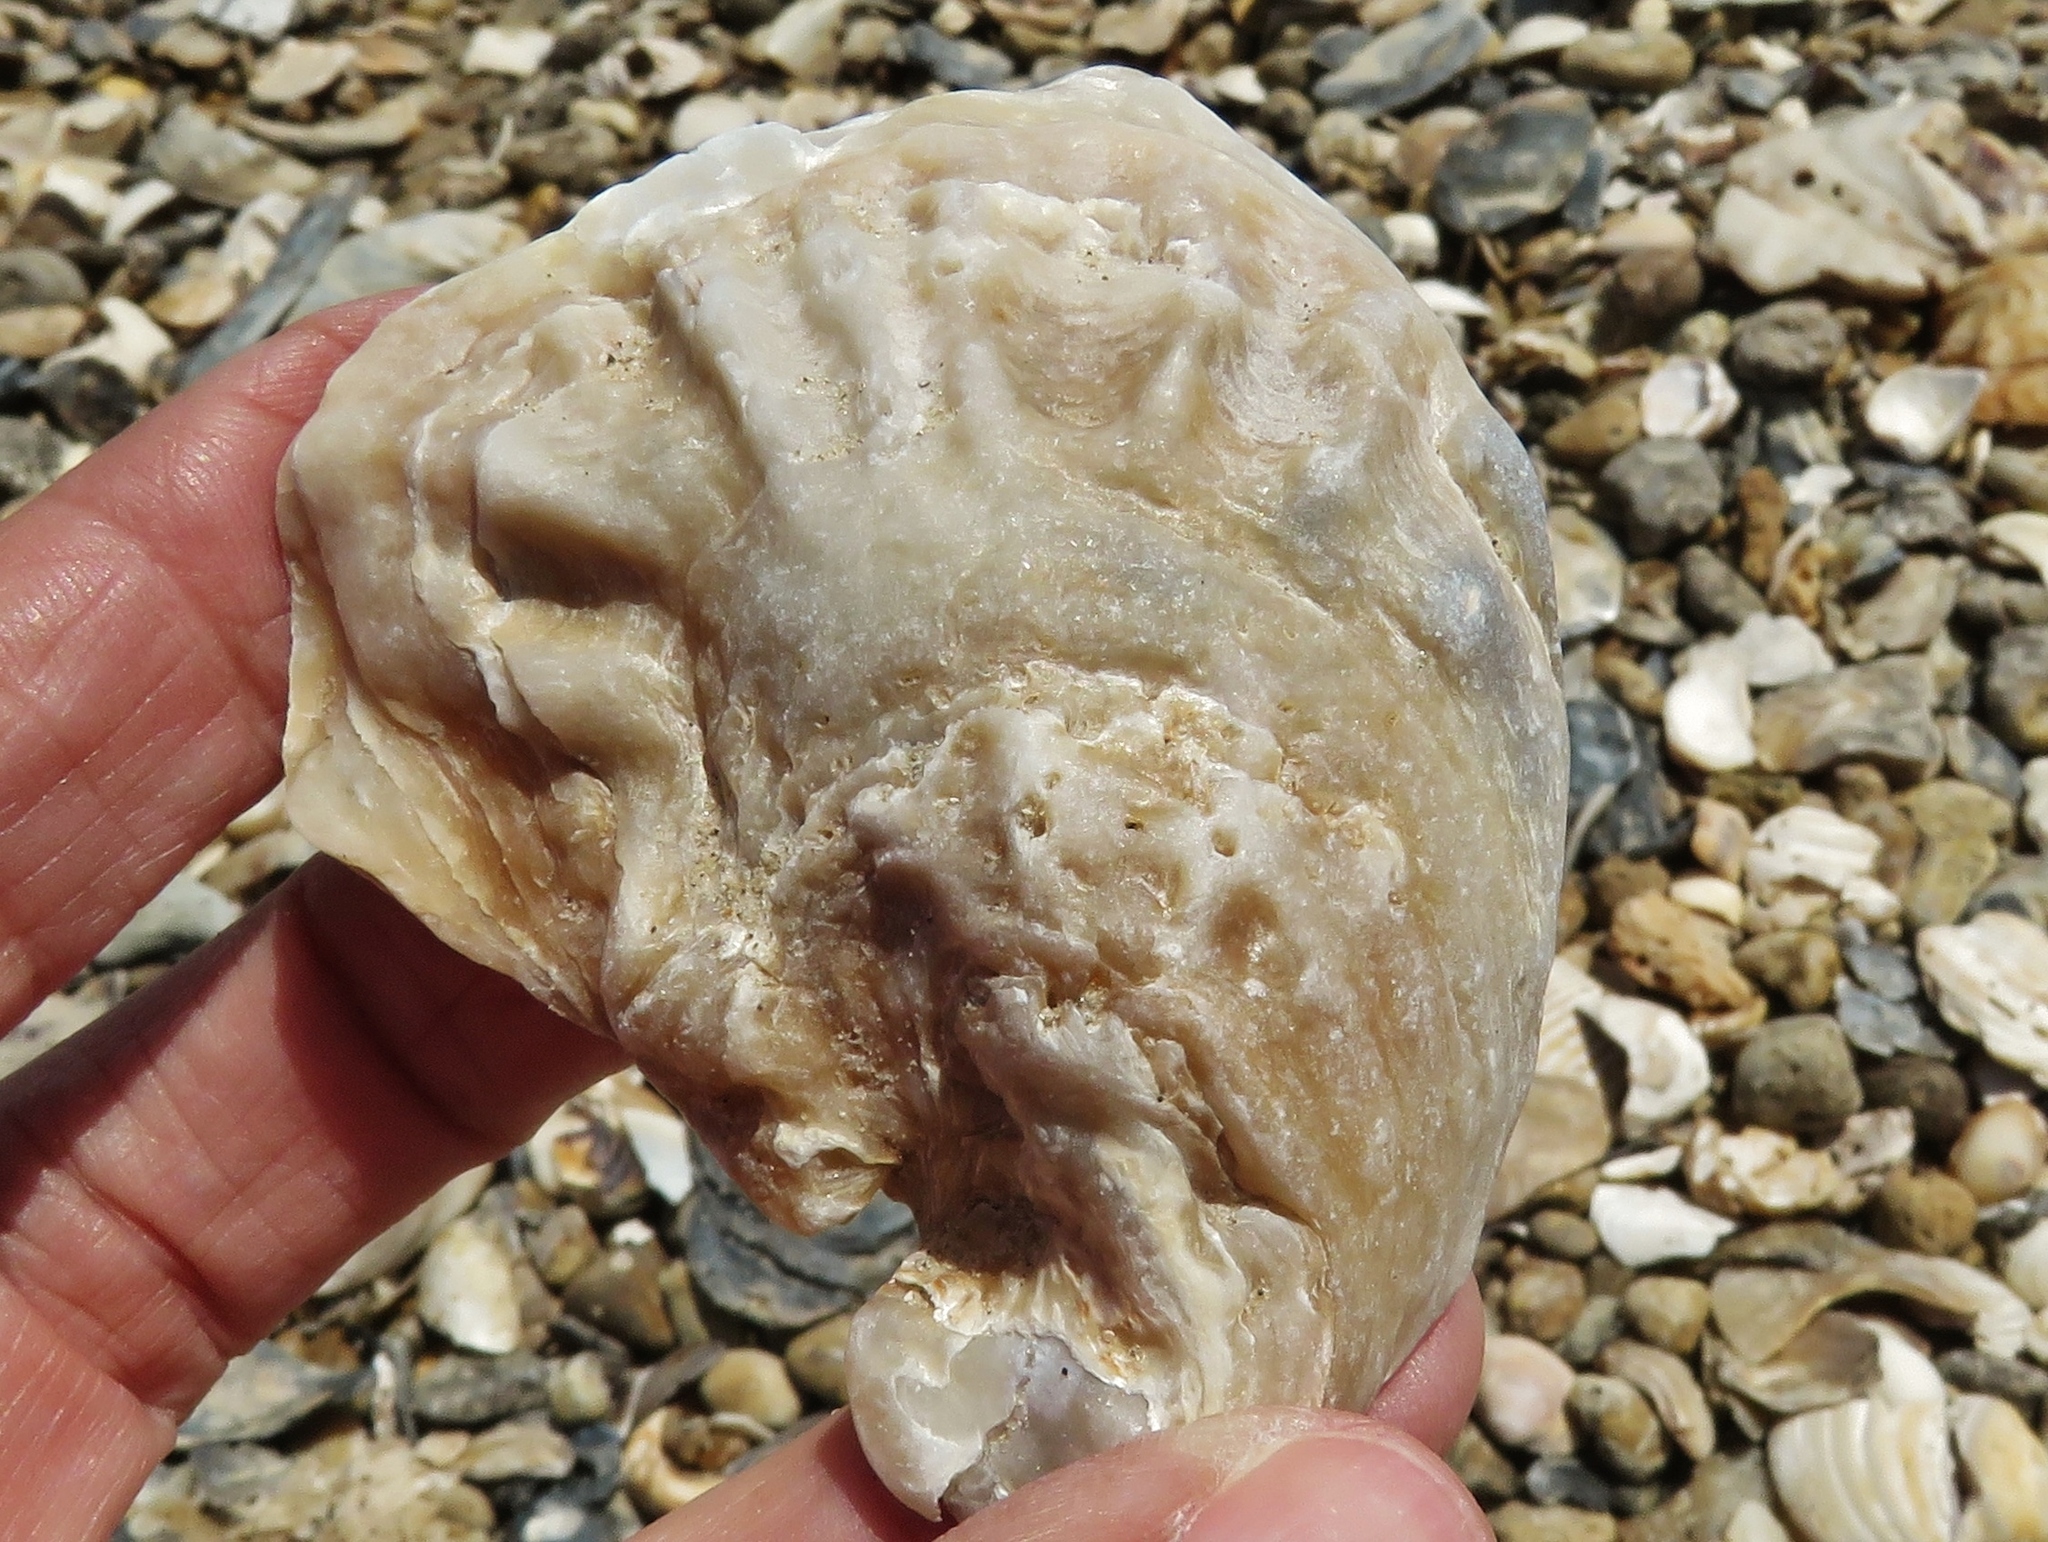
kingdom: Animalia
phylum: Mollusca
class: Bivalvia
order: Ostreida
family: Ostreidae
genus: Crassostrea
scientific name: Crassostrea virginica
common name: American oyster
